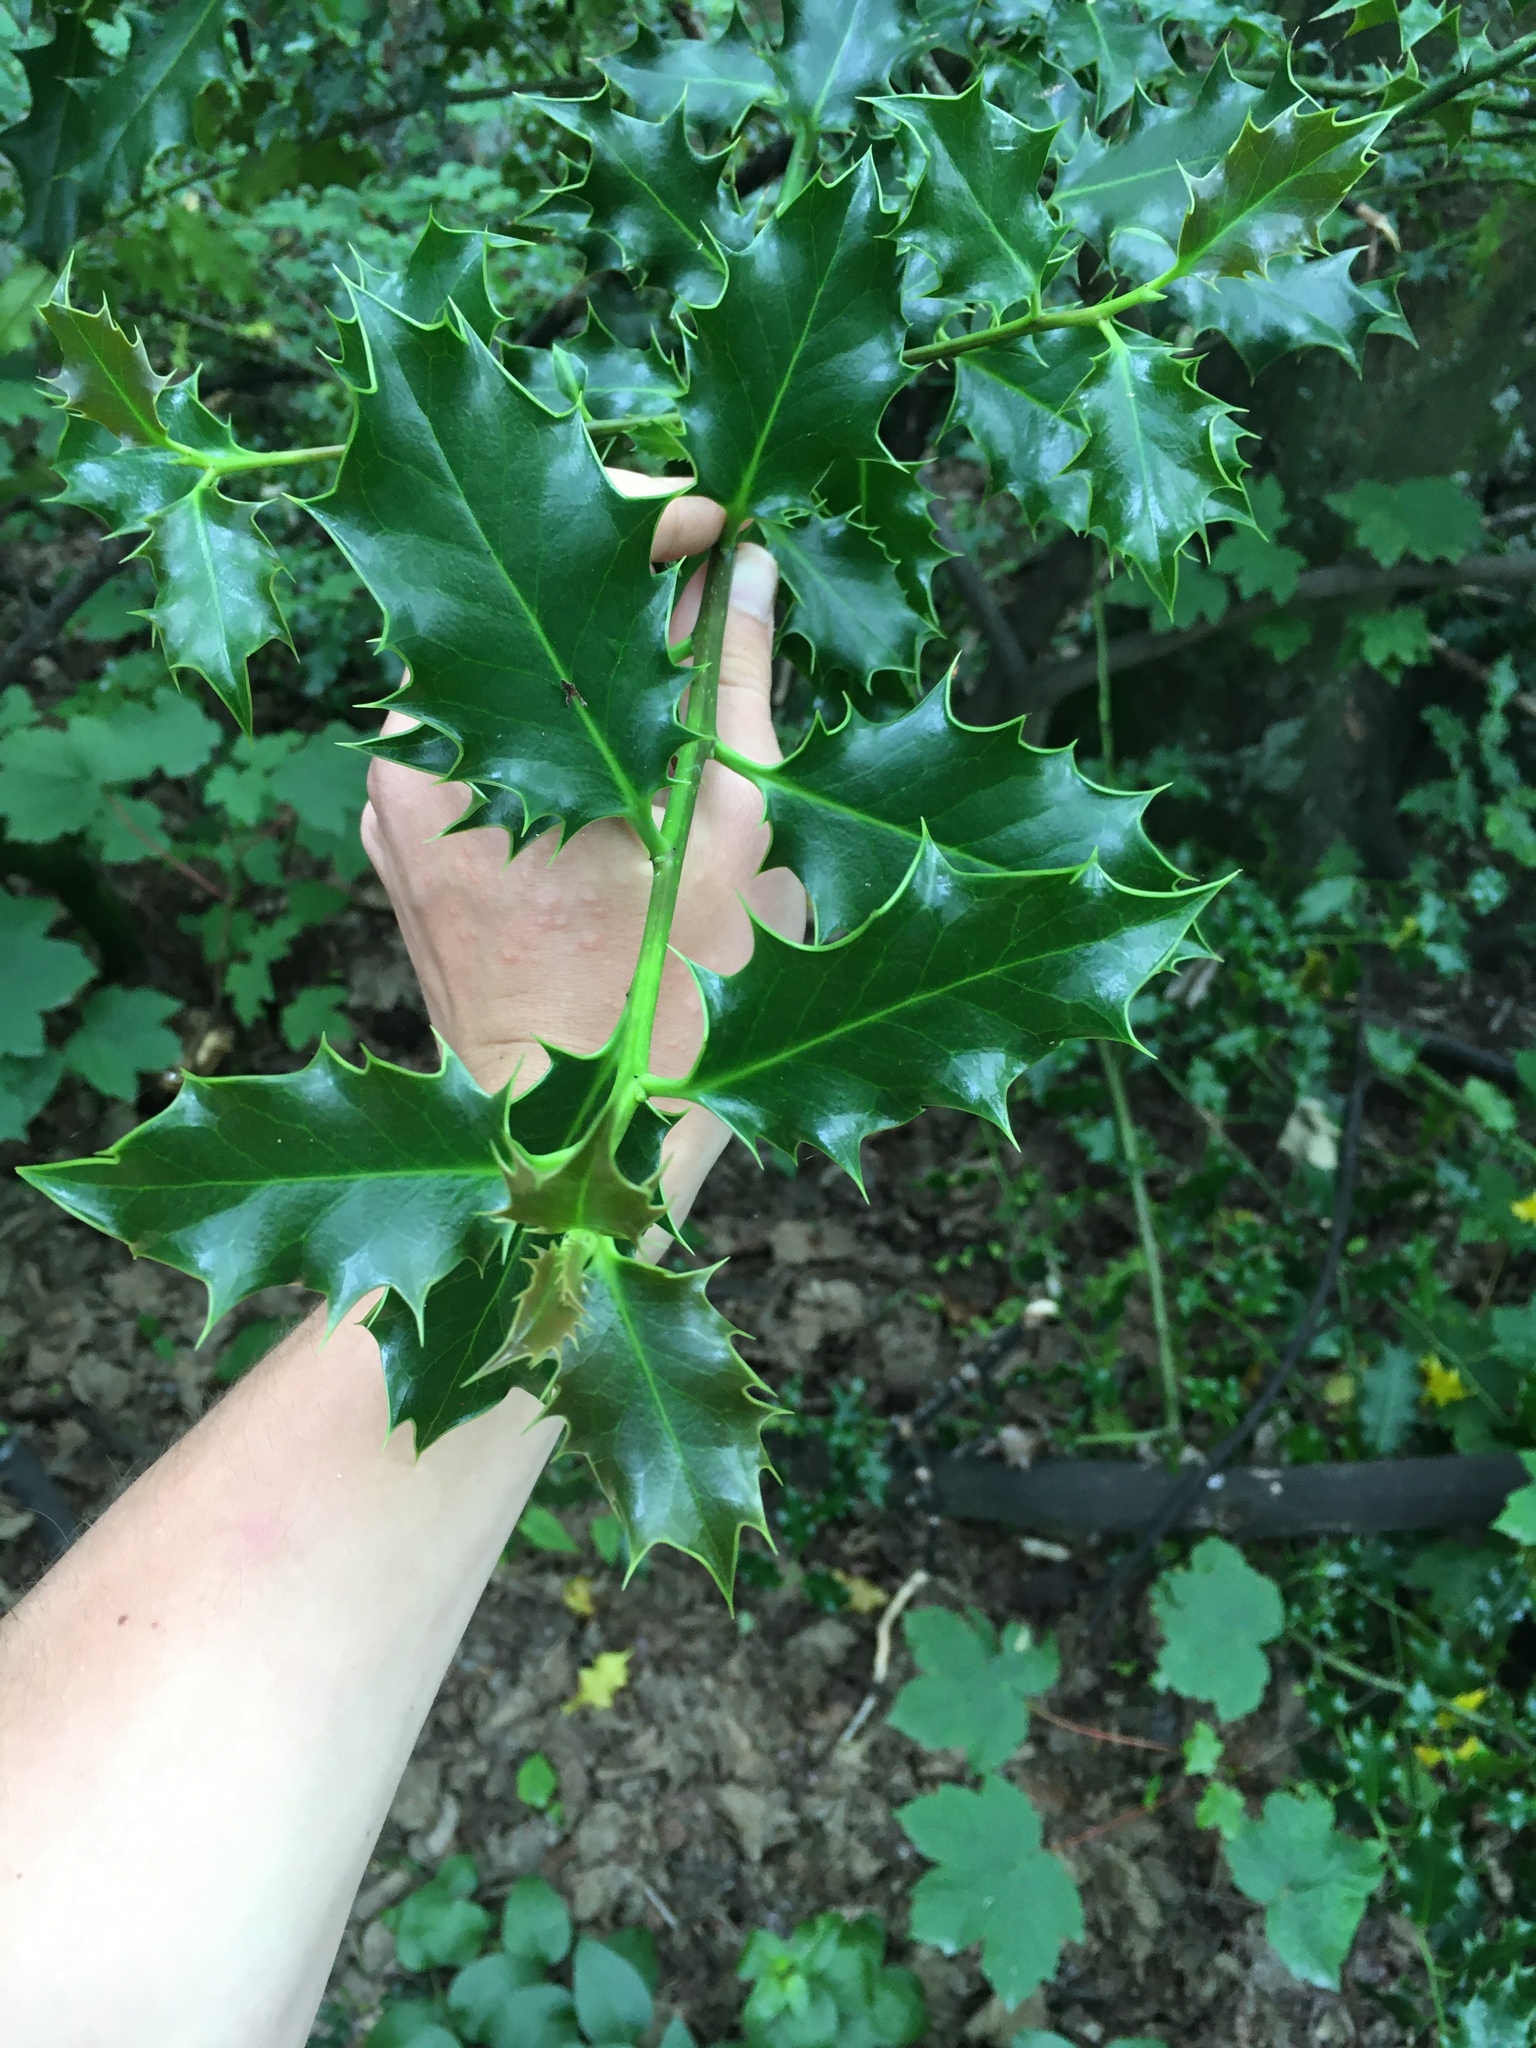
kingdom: Plantae
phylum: Tracheophyta
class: Magnoliopsida
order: Aquifoliales
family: Aquifoliaceae
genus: Ilex
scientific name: Ilex aquifolium
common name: English holly
